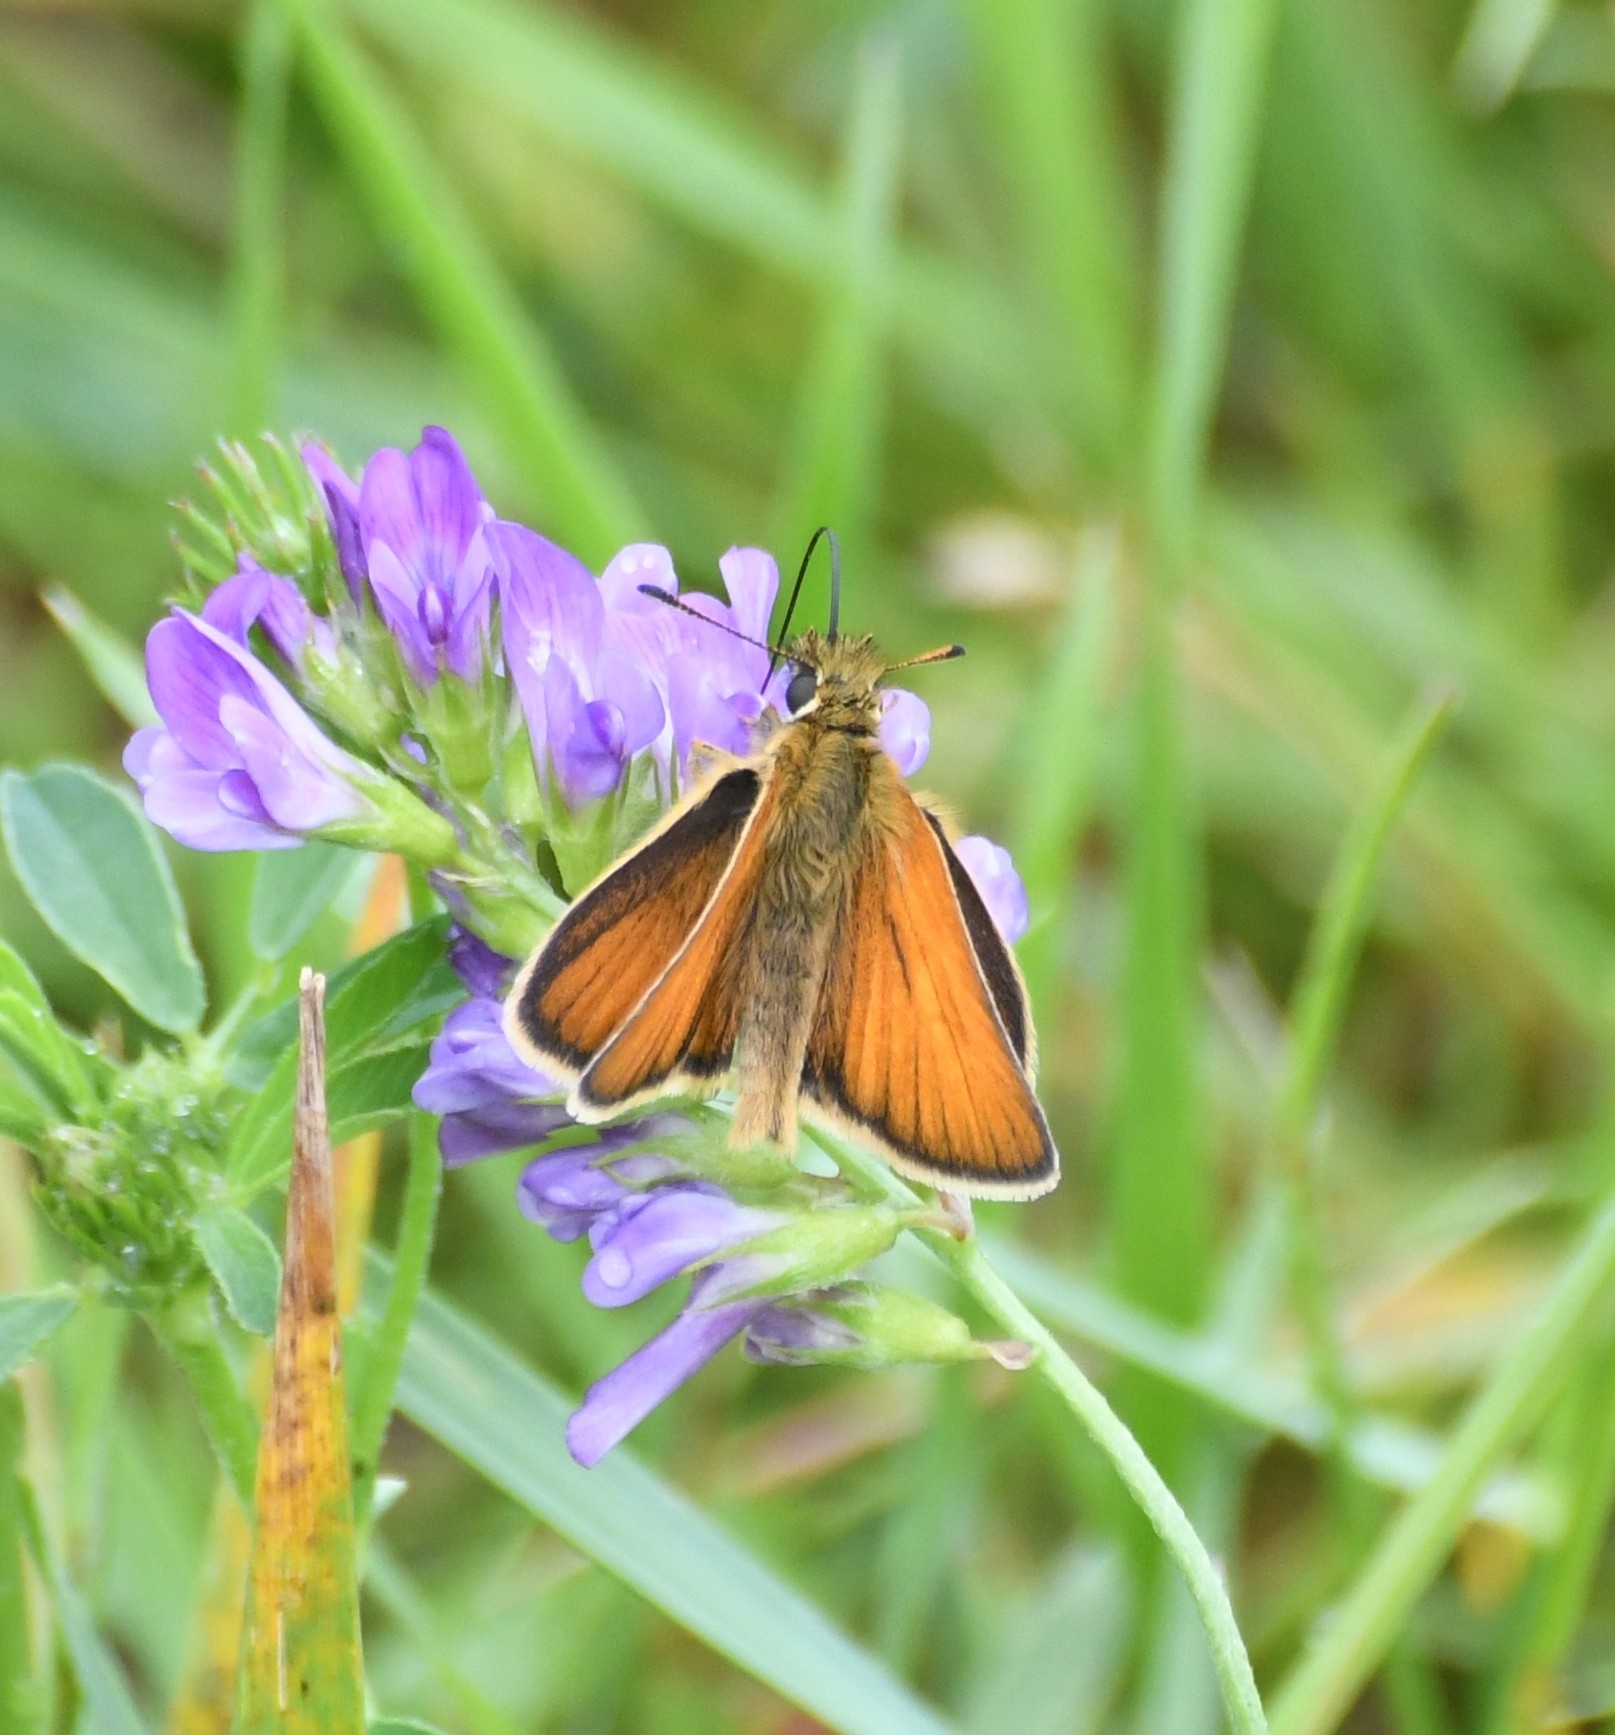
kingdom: Animalia
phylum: Arthropoda
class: Insecta
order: Lepidoptera
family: Hesperiidae
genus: Thymelicus
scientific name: Thymelicus lineola
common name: Essex skipper
